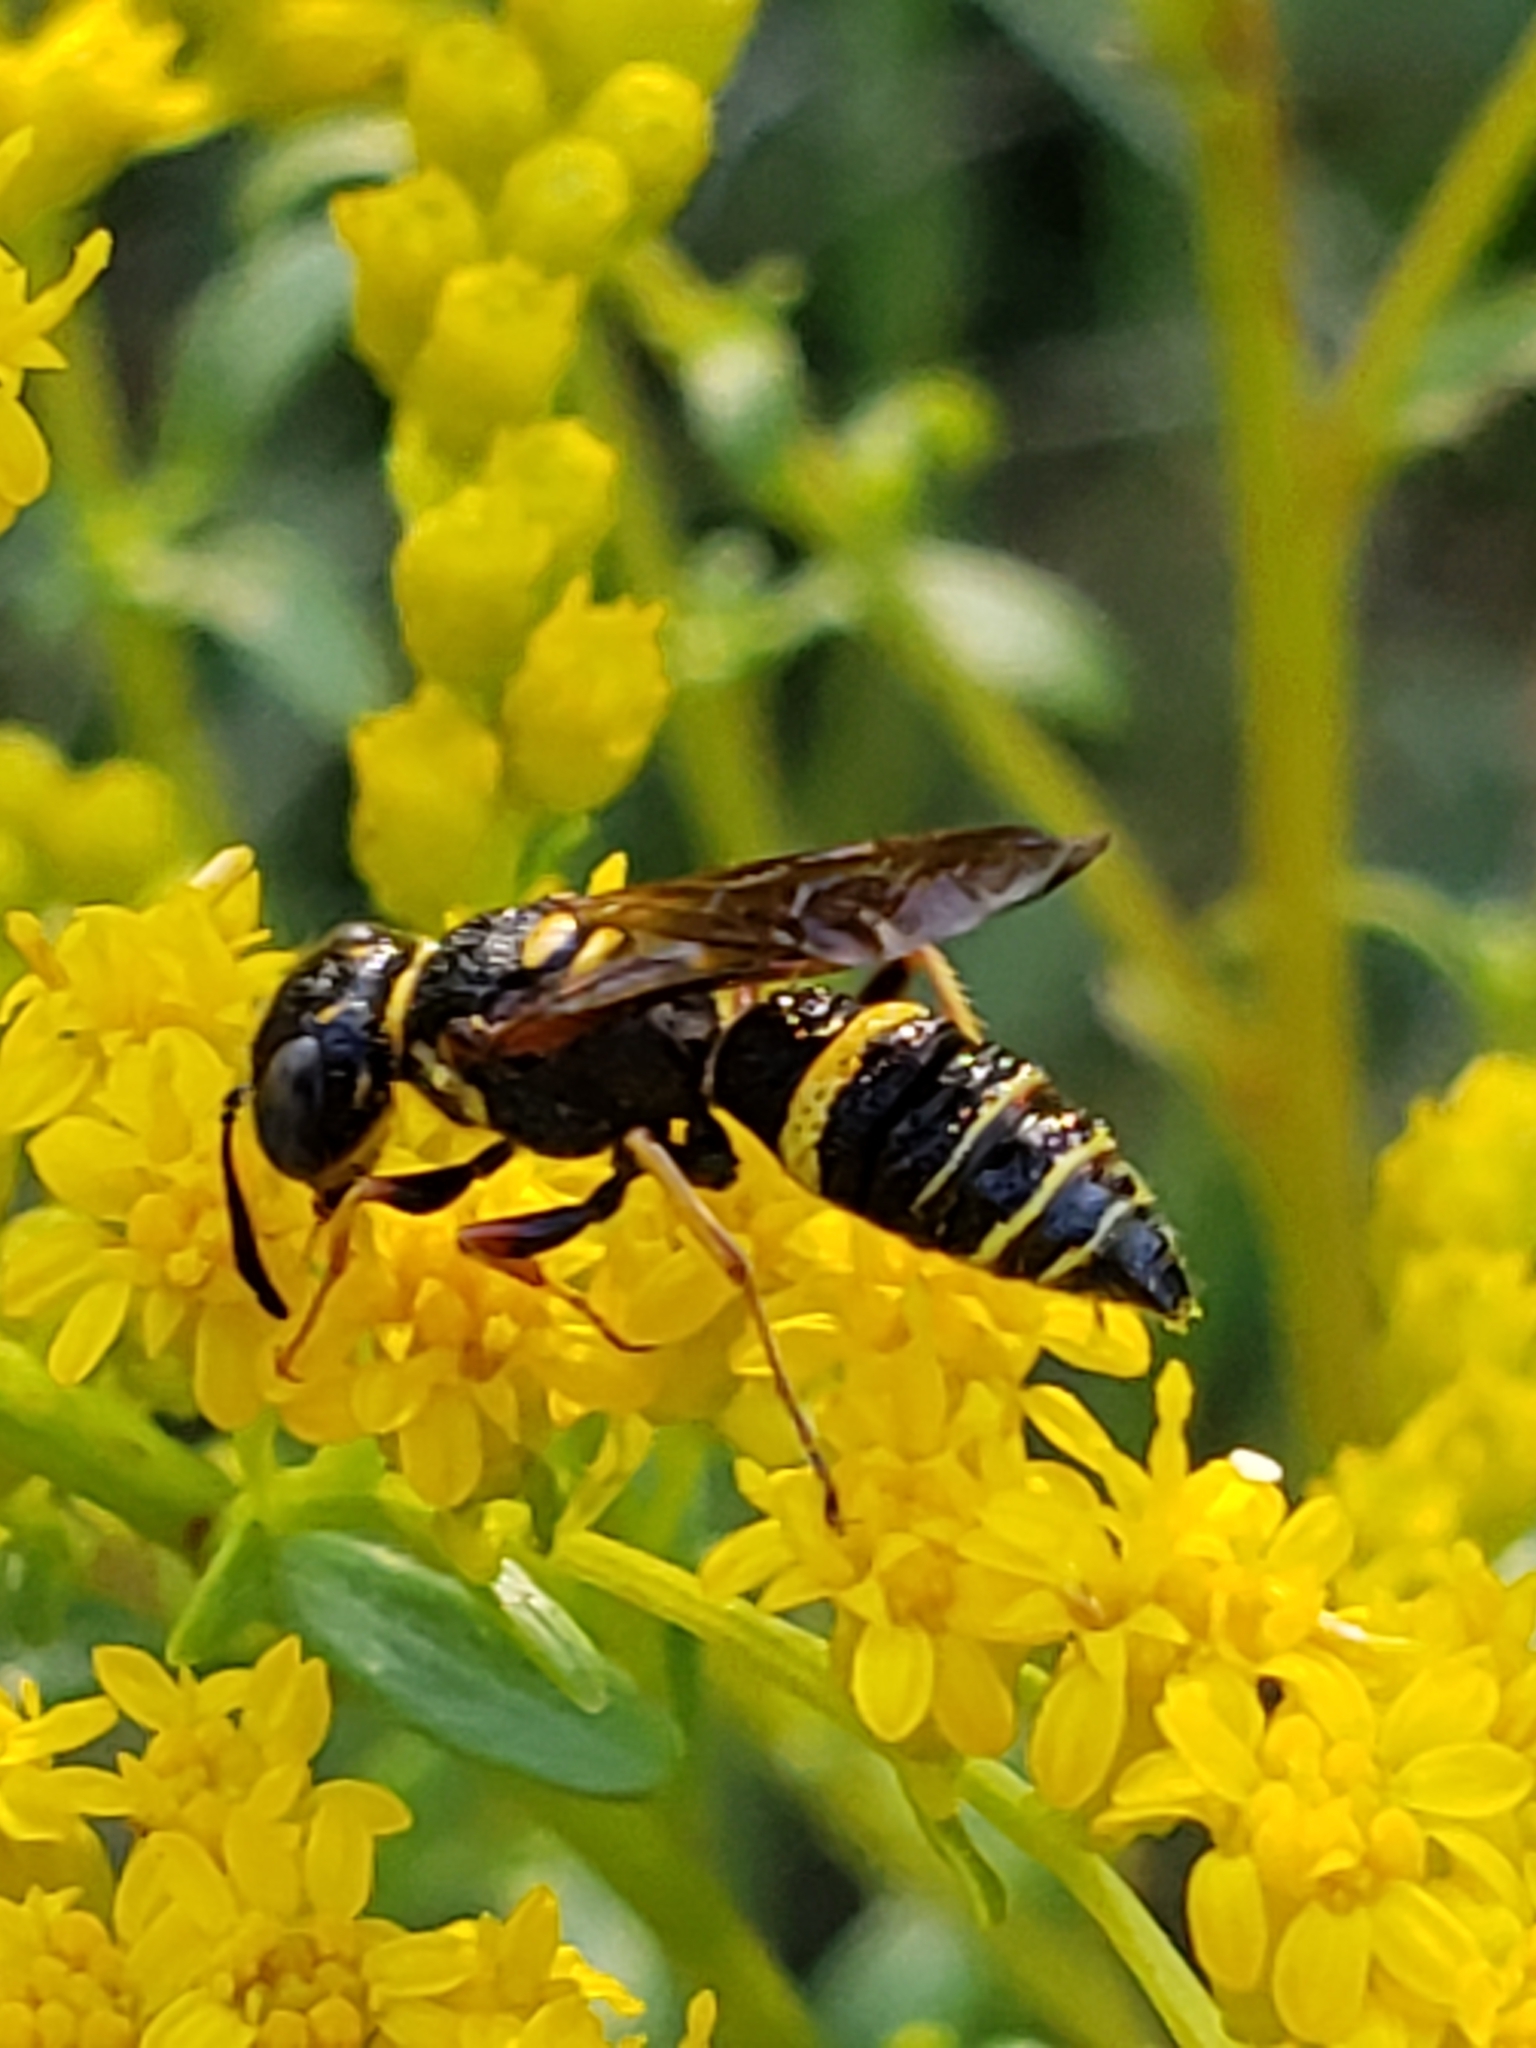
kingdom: Animalia
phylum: Arthropoda
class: Insecta
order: Hymenoptera
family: Crabronidae
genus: Philanthus
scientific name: Philanthus gibbosus
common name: Humped beewolf
